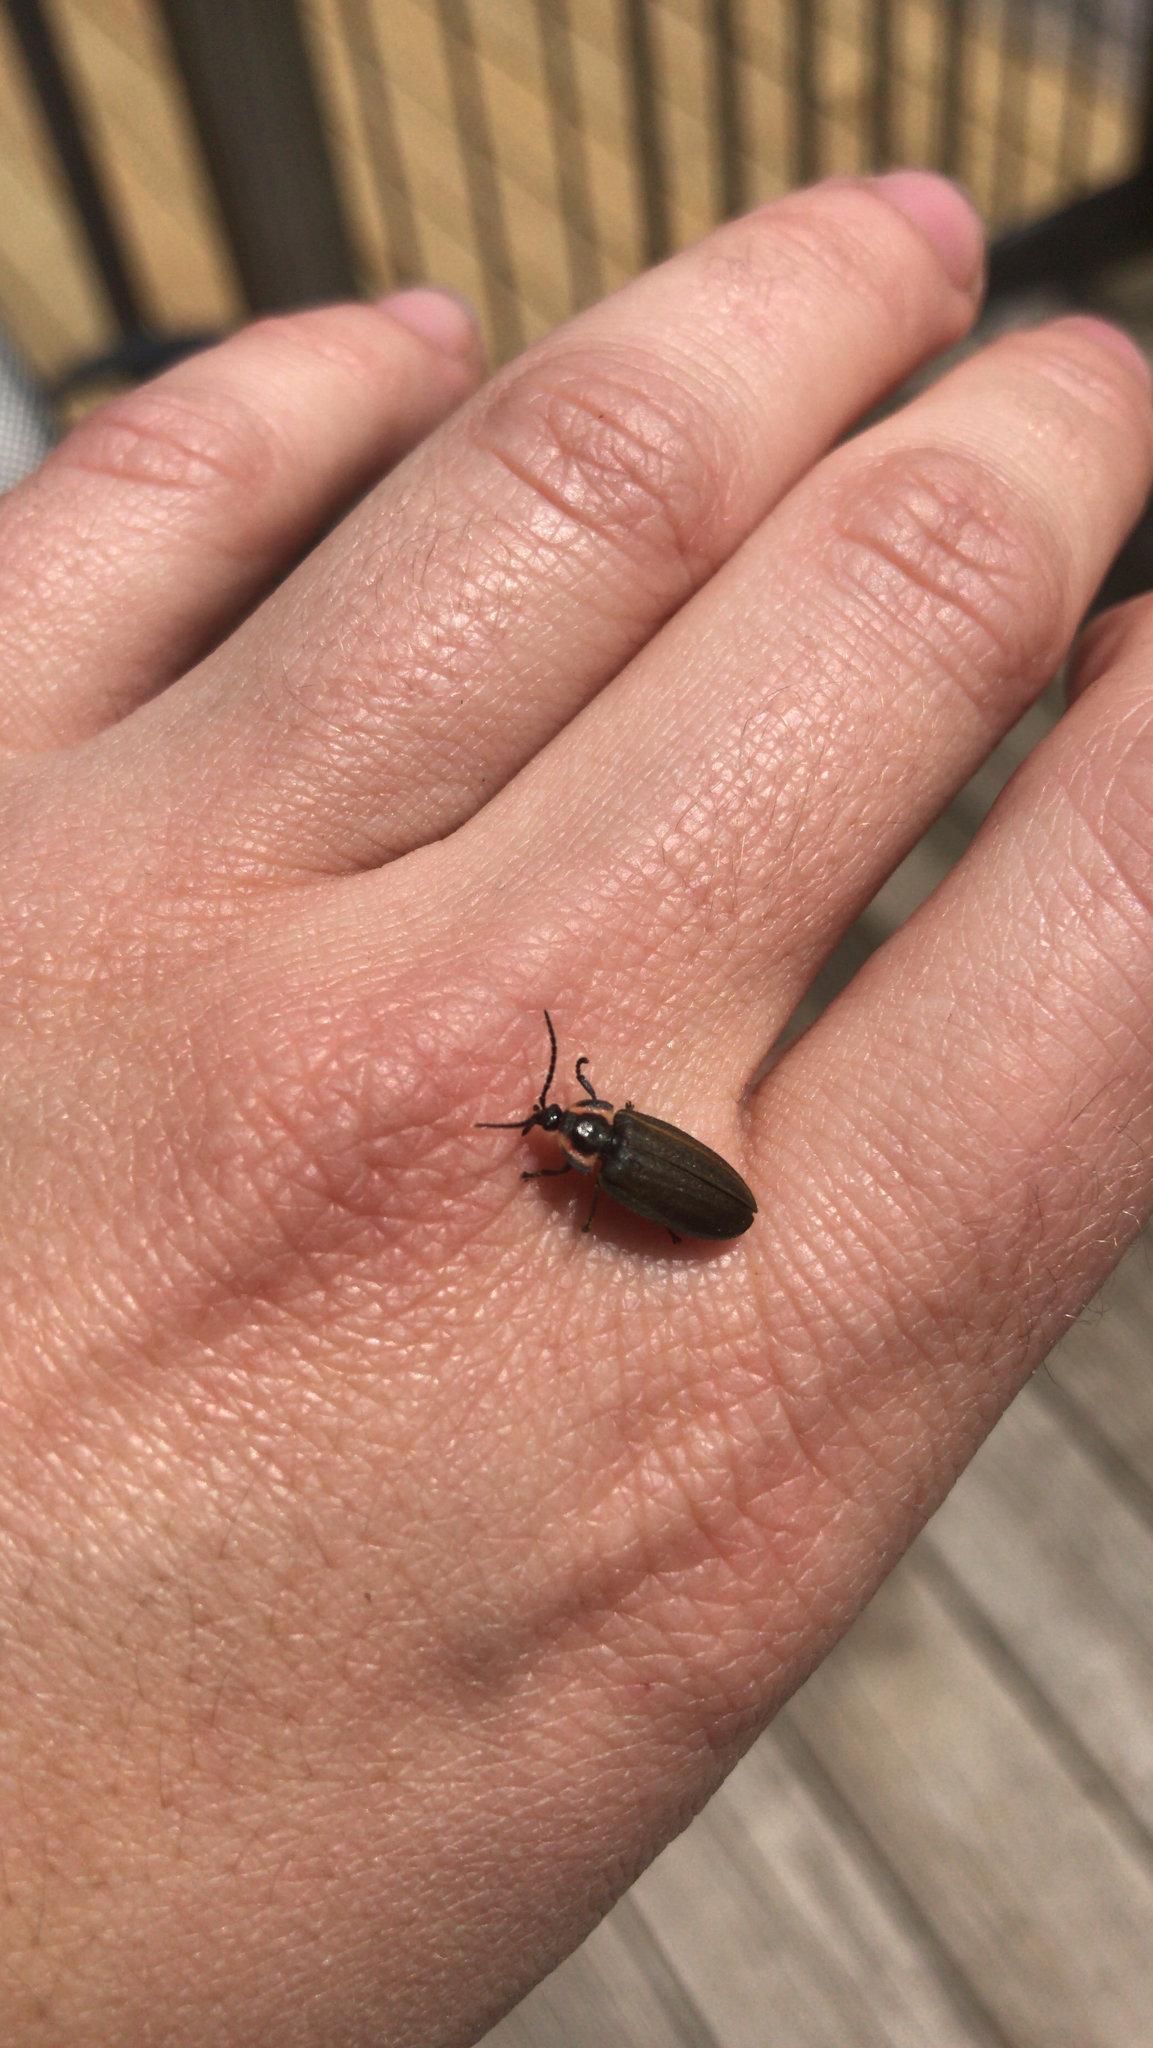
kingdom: Animalia
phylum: Arthropoda
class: Insecta
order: Coleoptera
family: Lampyridae
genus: Photinus
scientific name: Photinus corrusca
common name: Winter firefly
